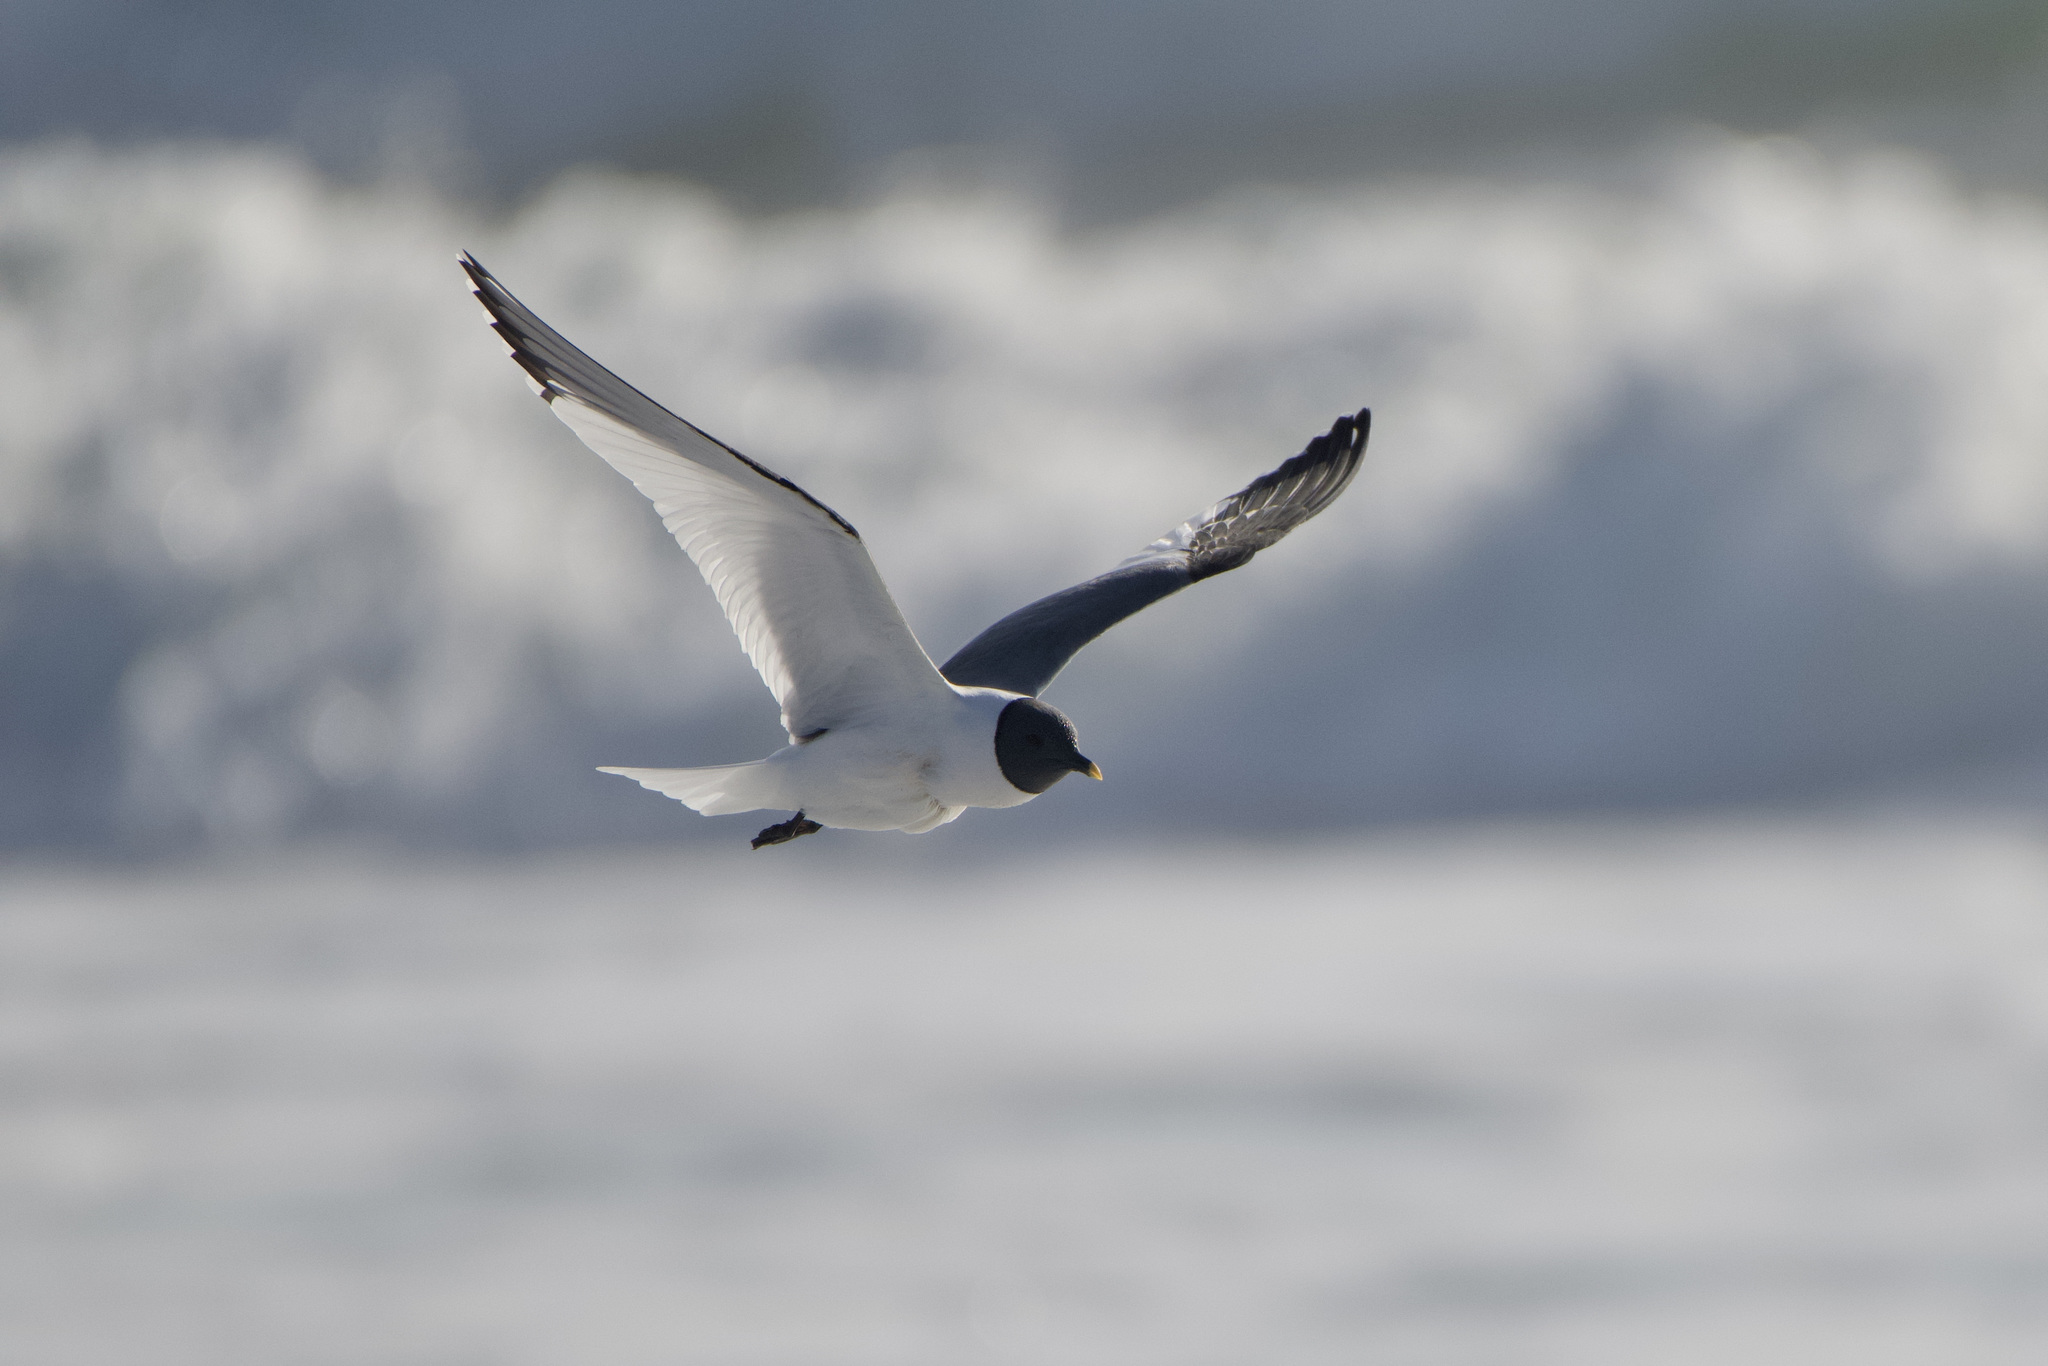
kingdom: Animalia
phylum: Chordata
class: Aves
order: Charadriiformes
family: Laridae
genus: Xema
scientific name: Xema sabini
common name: Sabine's gull
